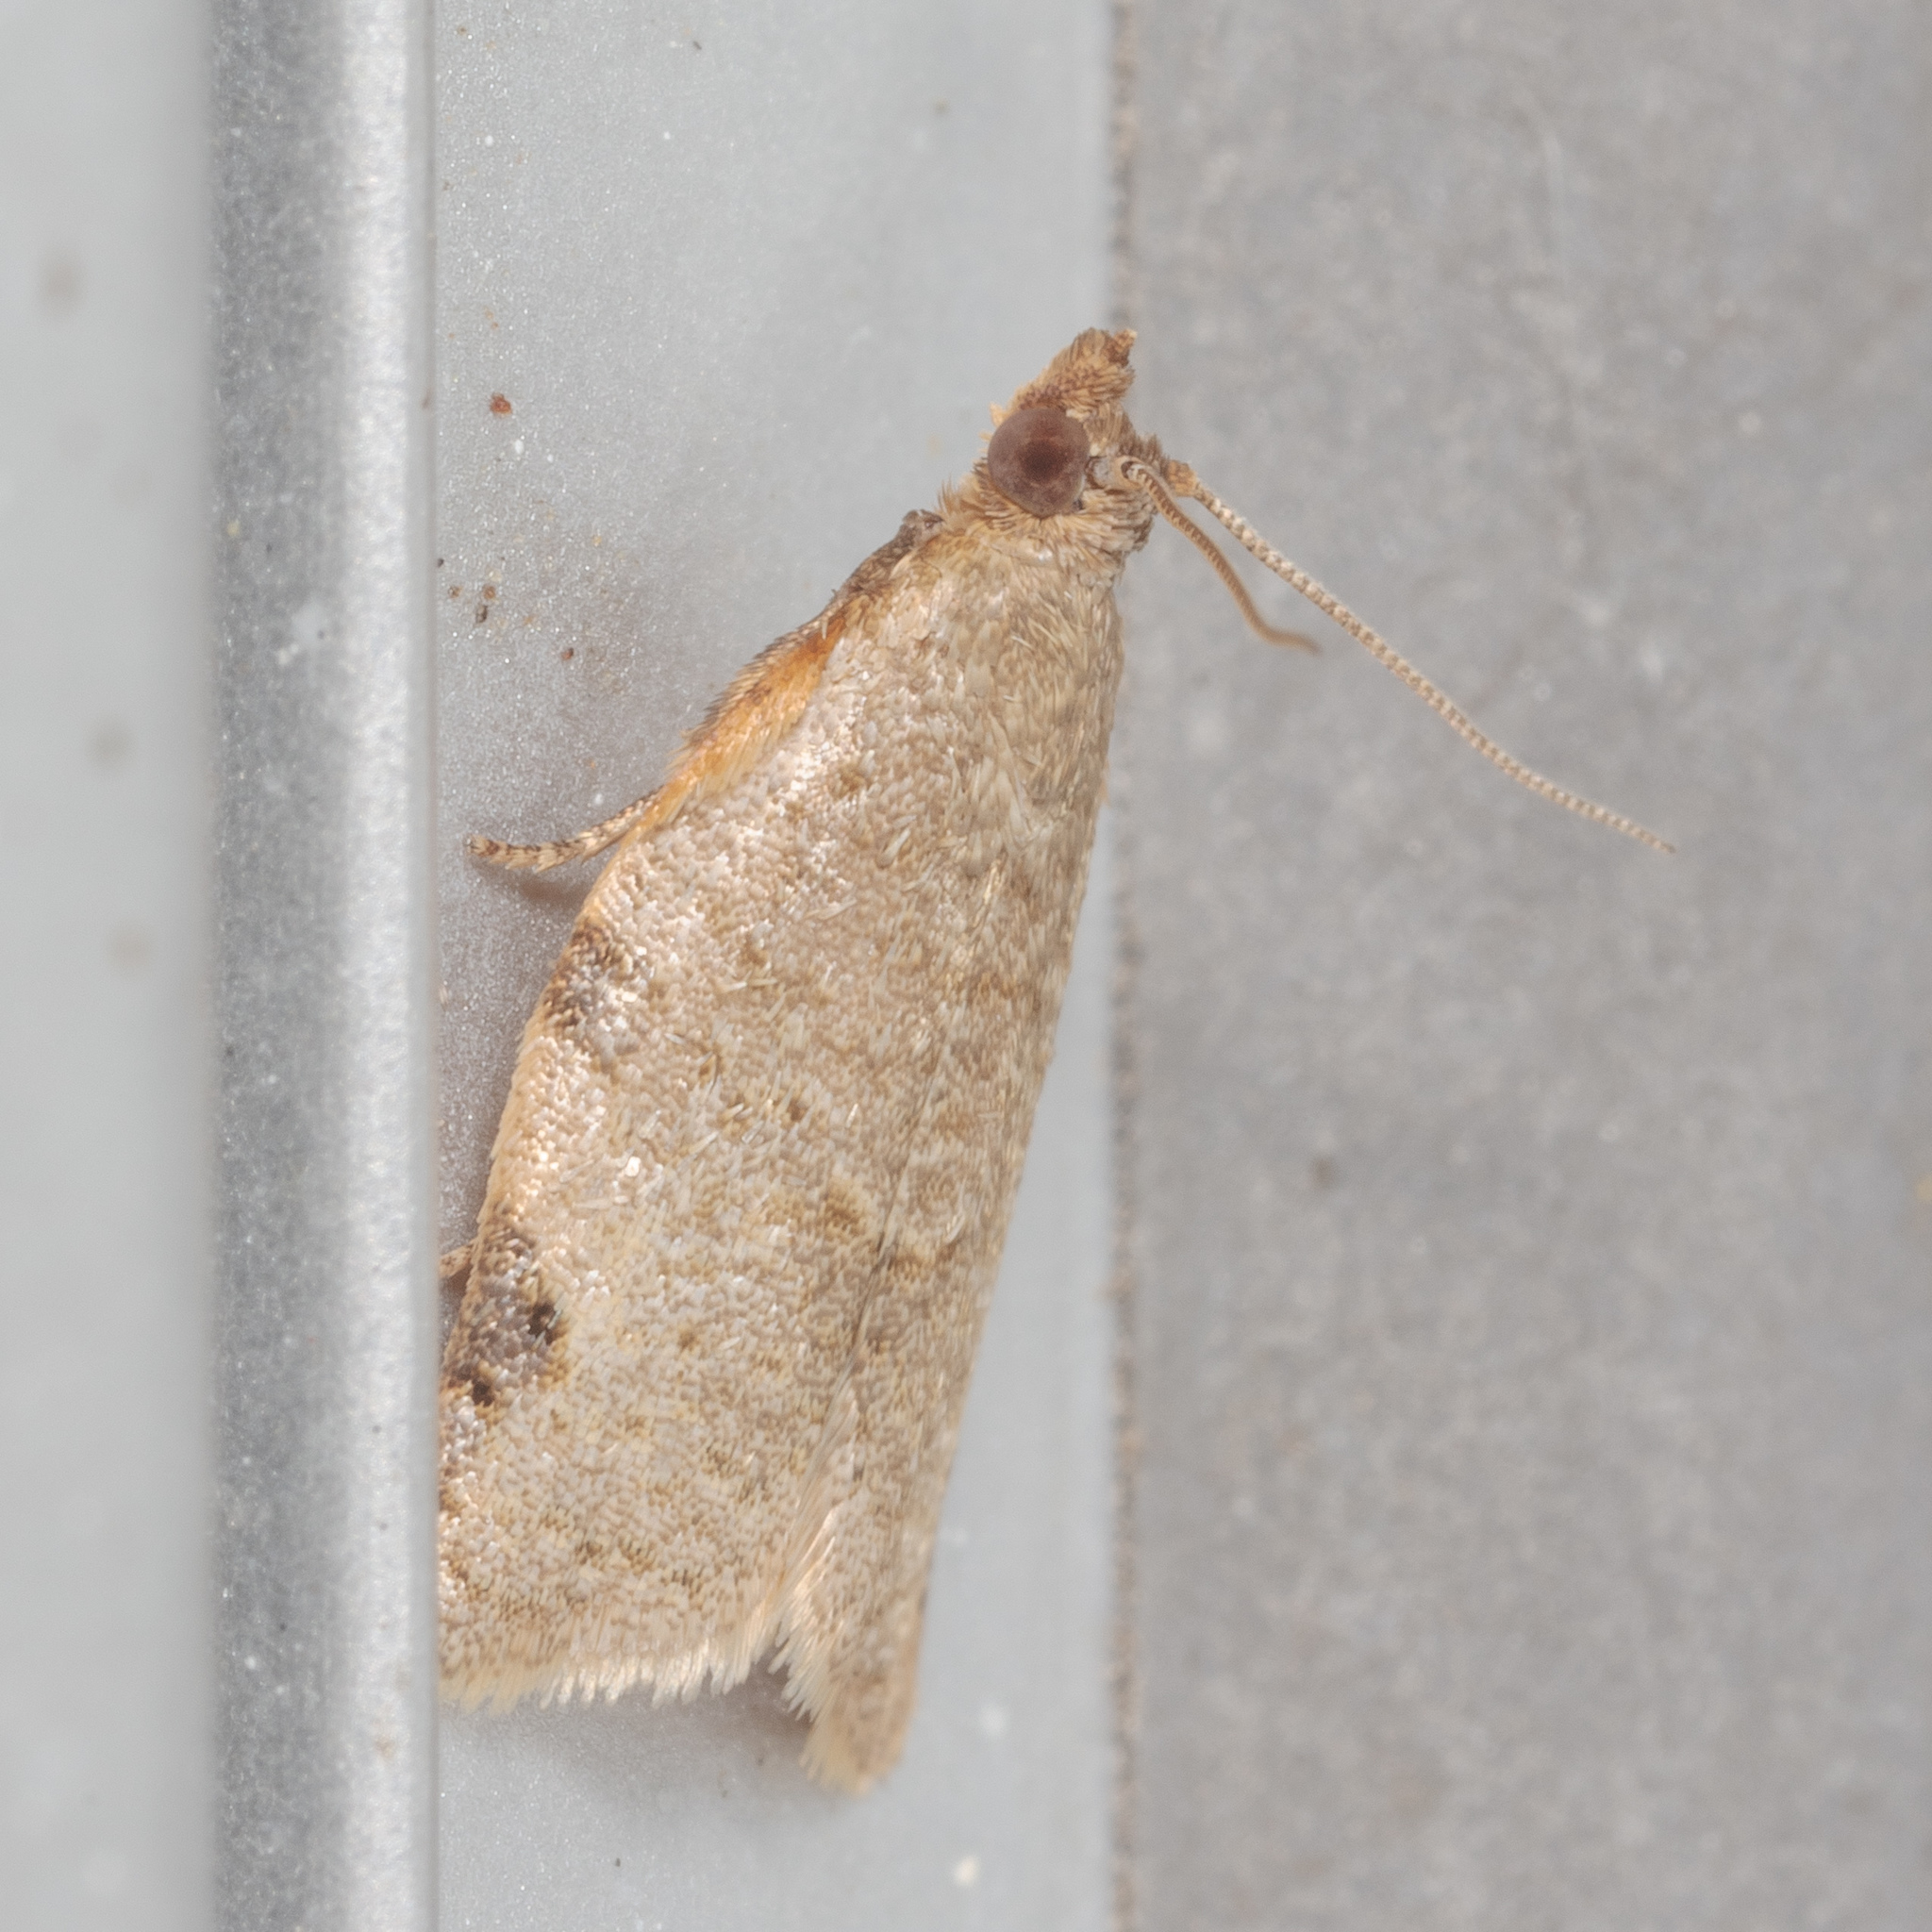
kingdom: Animalia
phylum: Arthropoda
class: Insecta
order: Lepidoptera
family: Tortricidae
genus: Clepsis
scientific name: Clepsis virescana
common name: Greenish apple moth
